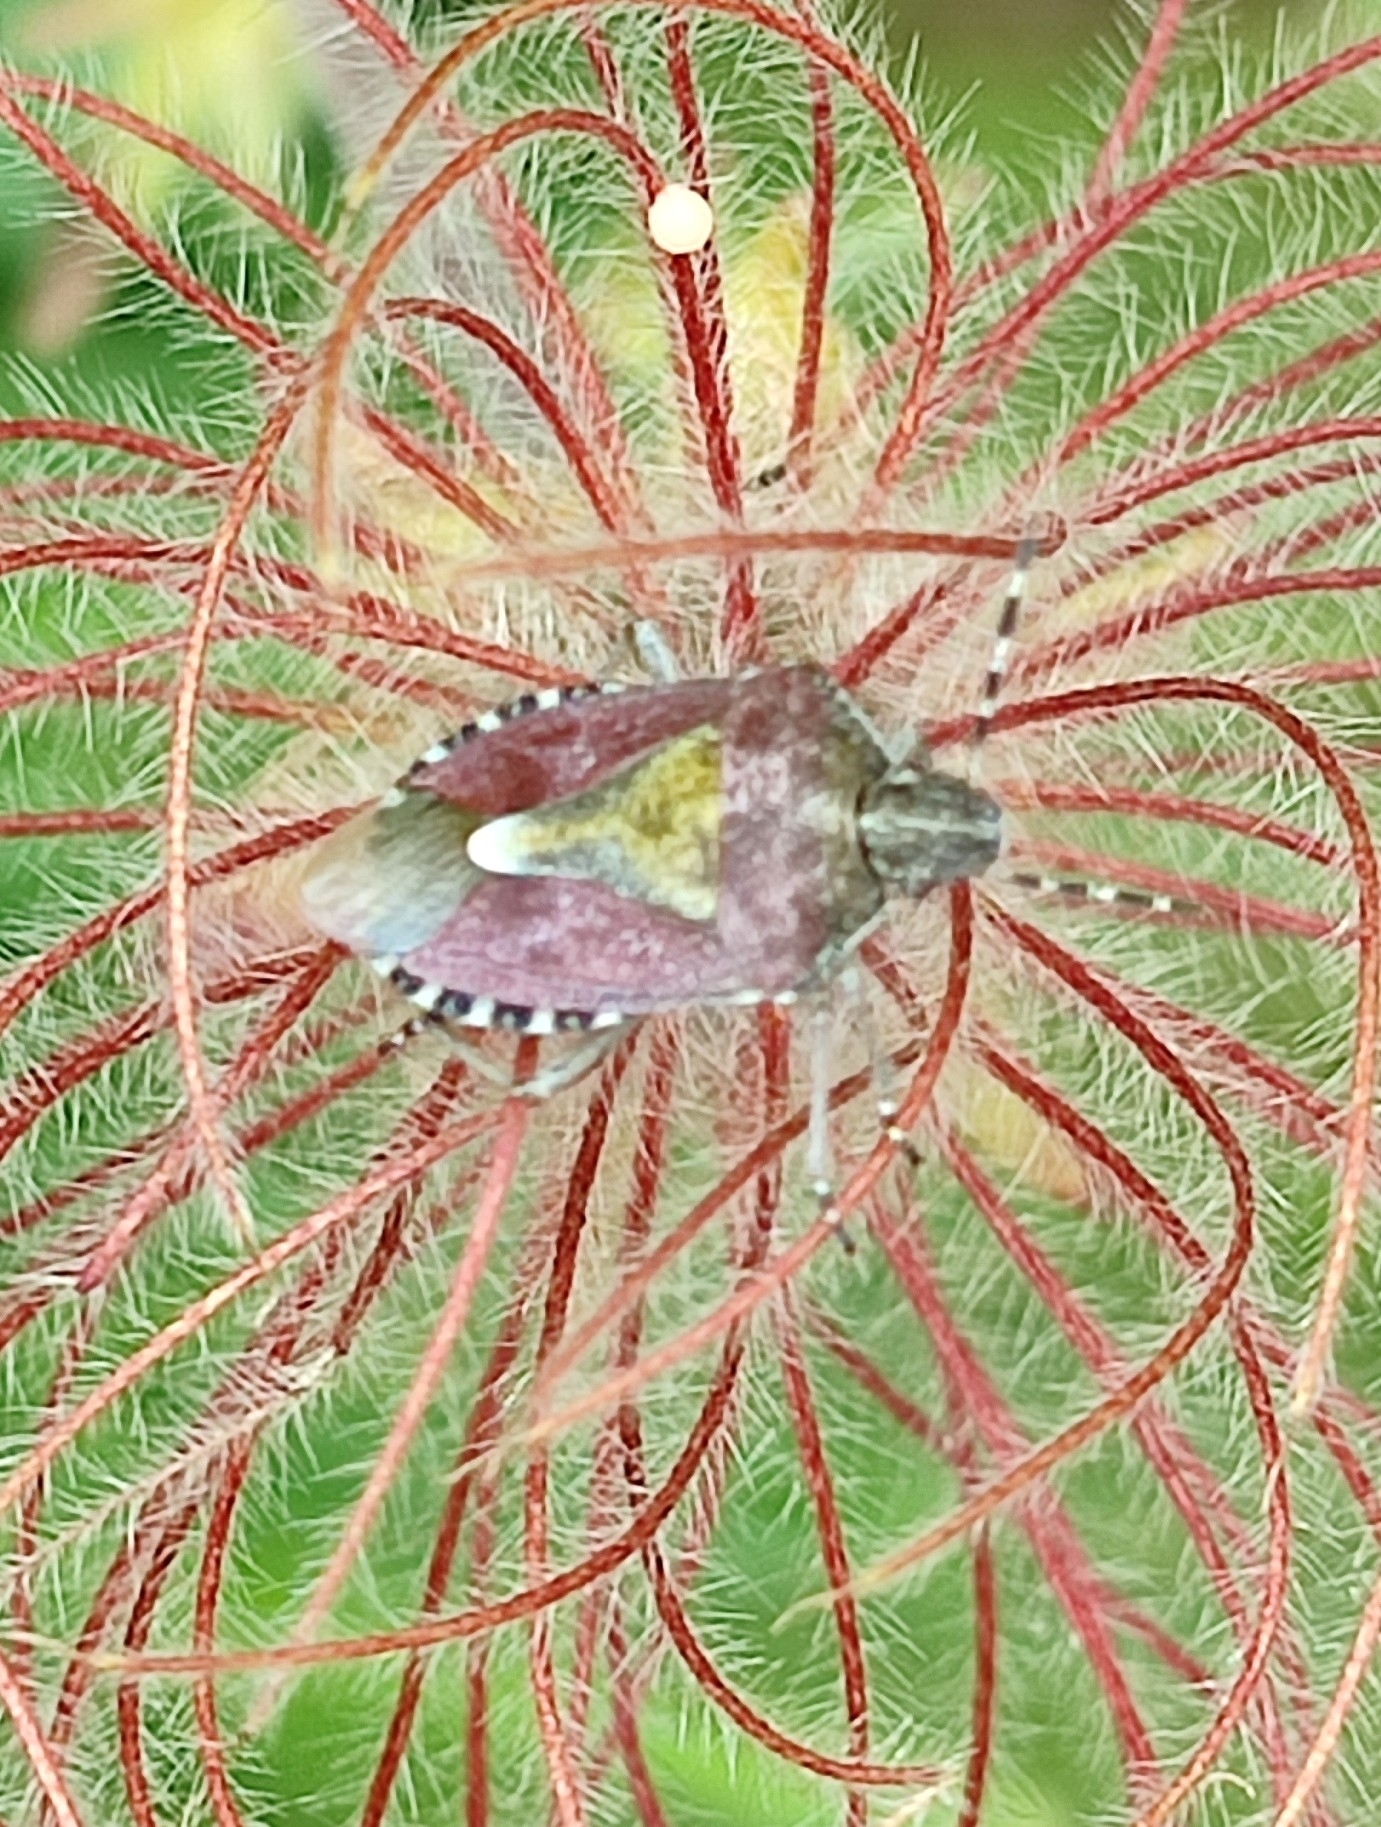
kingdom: Animalia
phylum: Arthropoda
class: Insecta
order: Hemiptera
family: Pentatomidae
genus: Dolycoris
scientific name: Dolycoris baccarum
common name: Sloe bug
